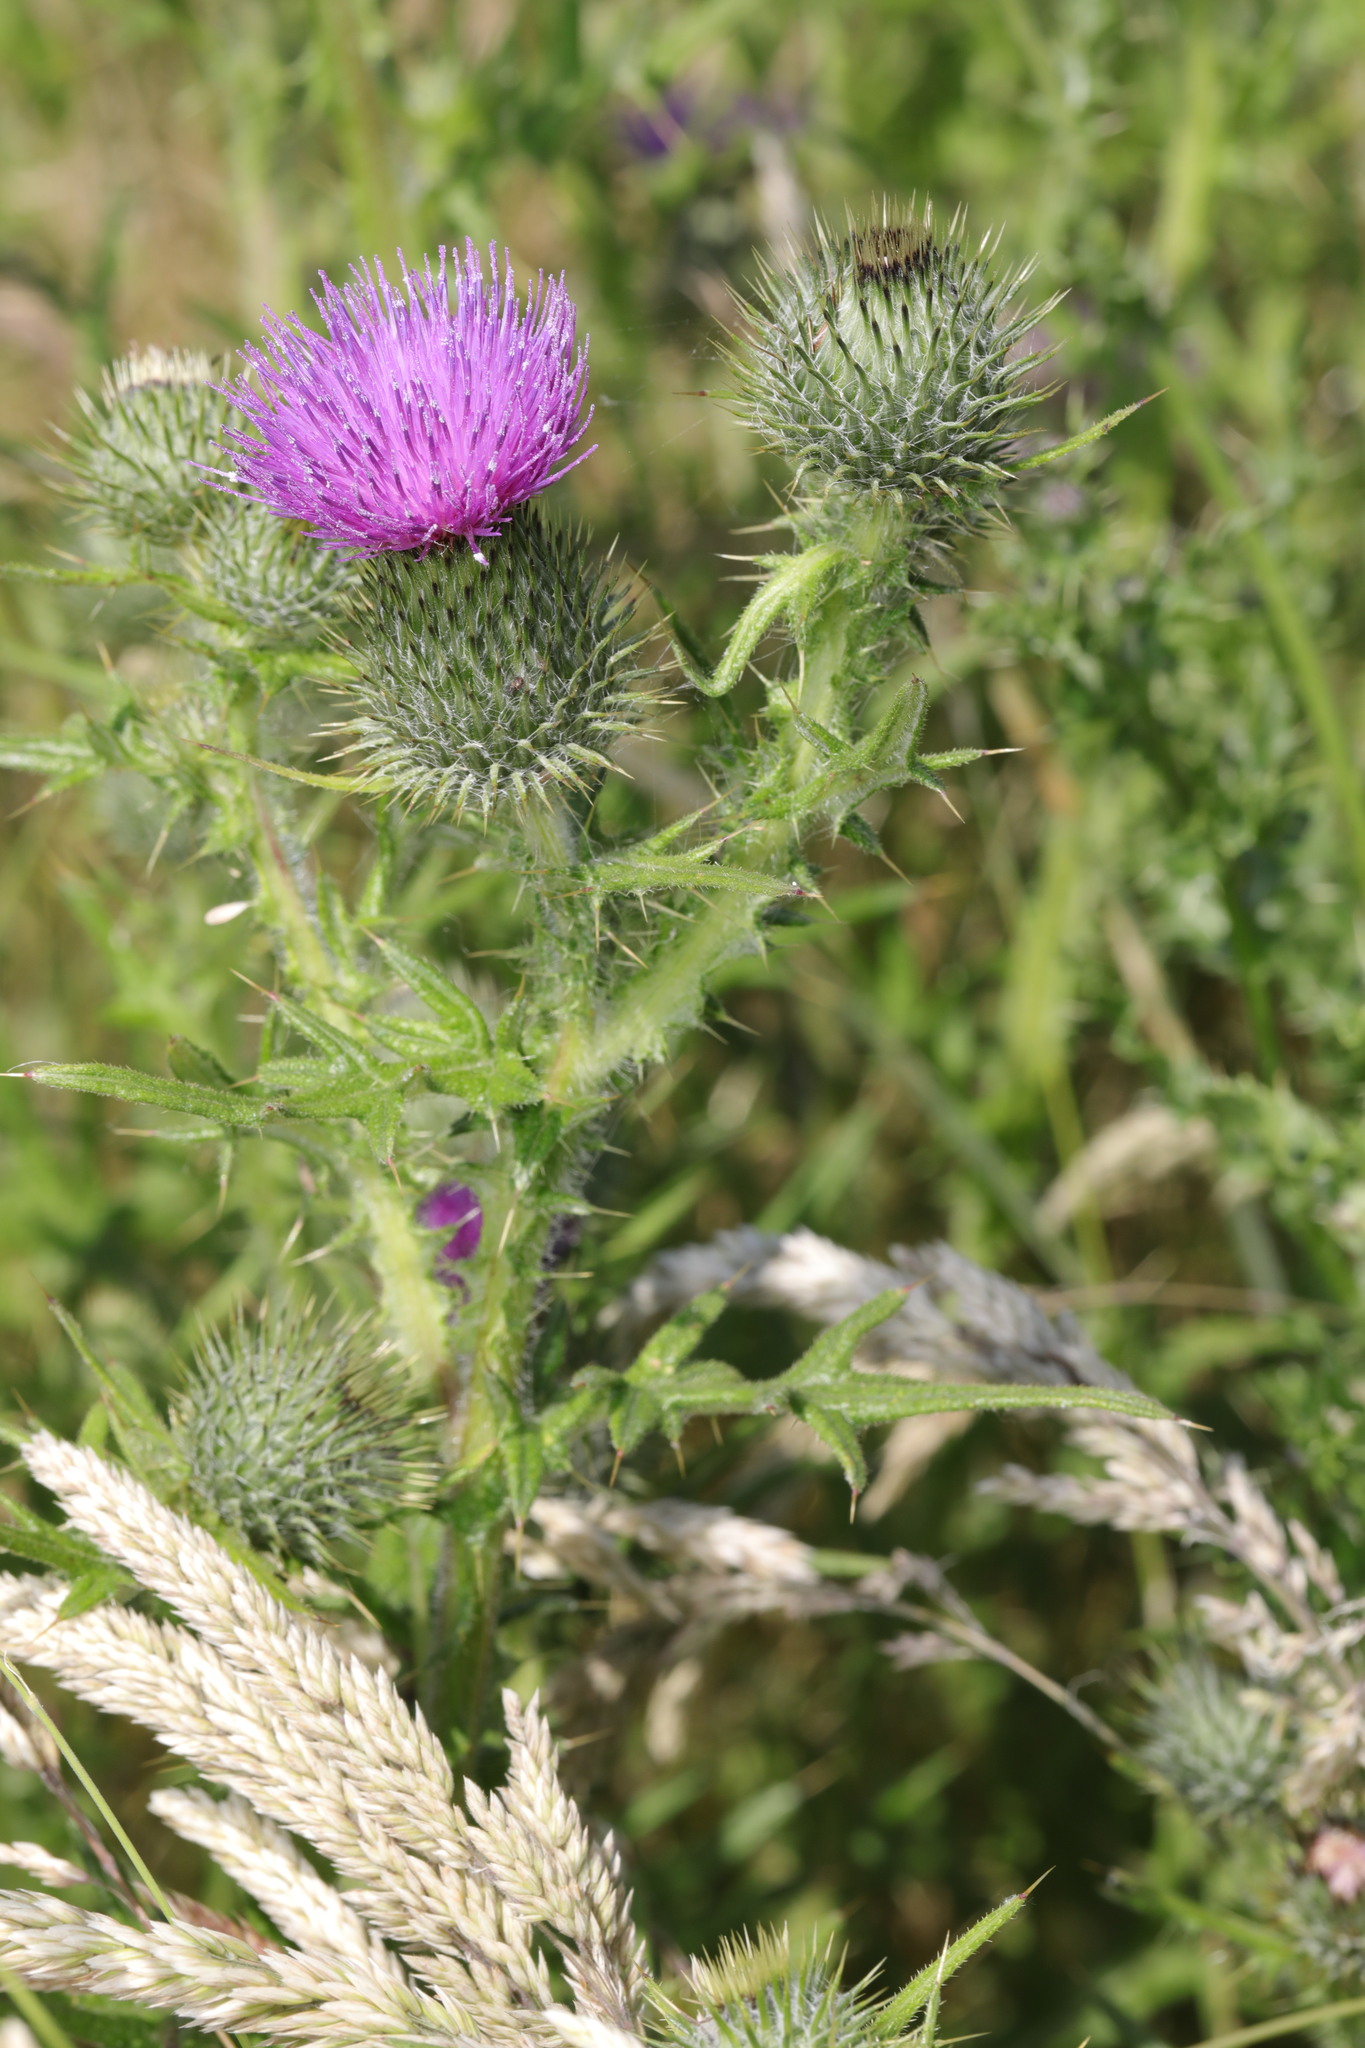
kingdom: Plantae
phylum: Tracheophyta
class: Magnoliopsida
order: Asterales
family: Asteraceae
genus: Cirsium
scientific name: Cirsium vulgare
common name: Bull thistle
